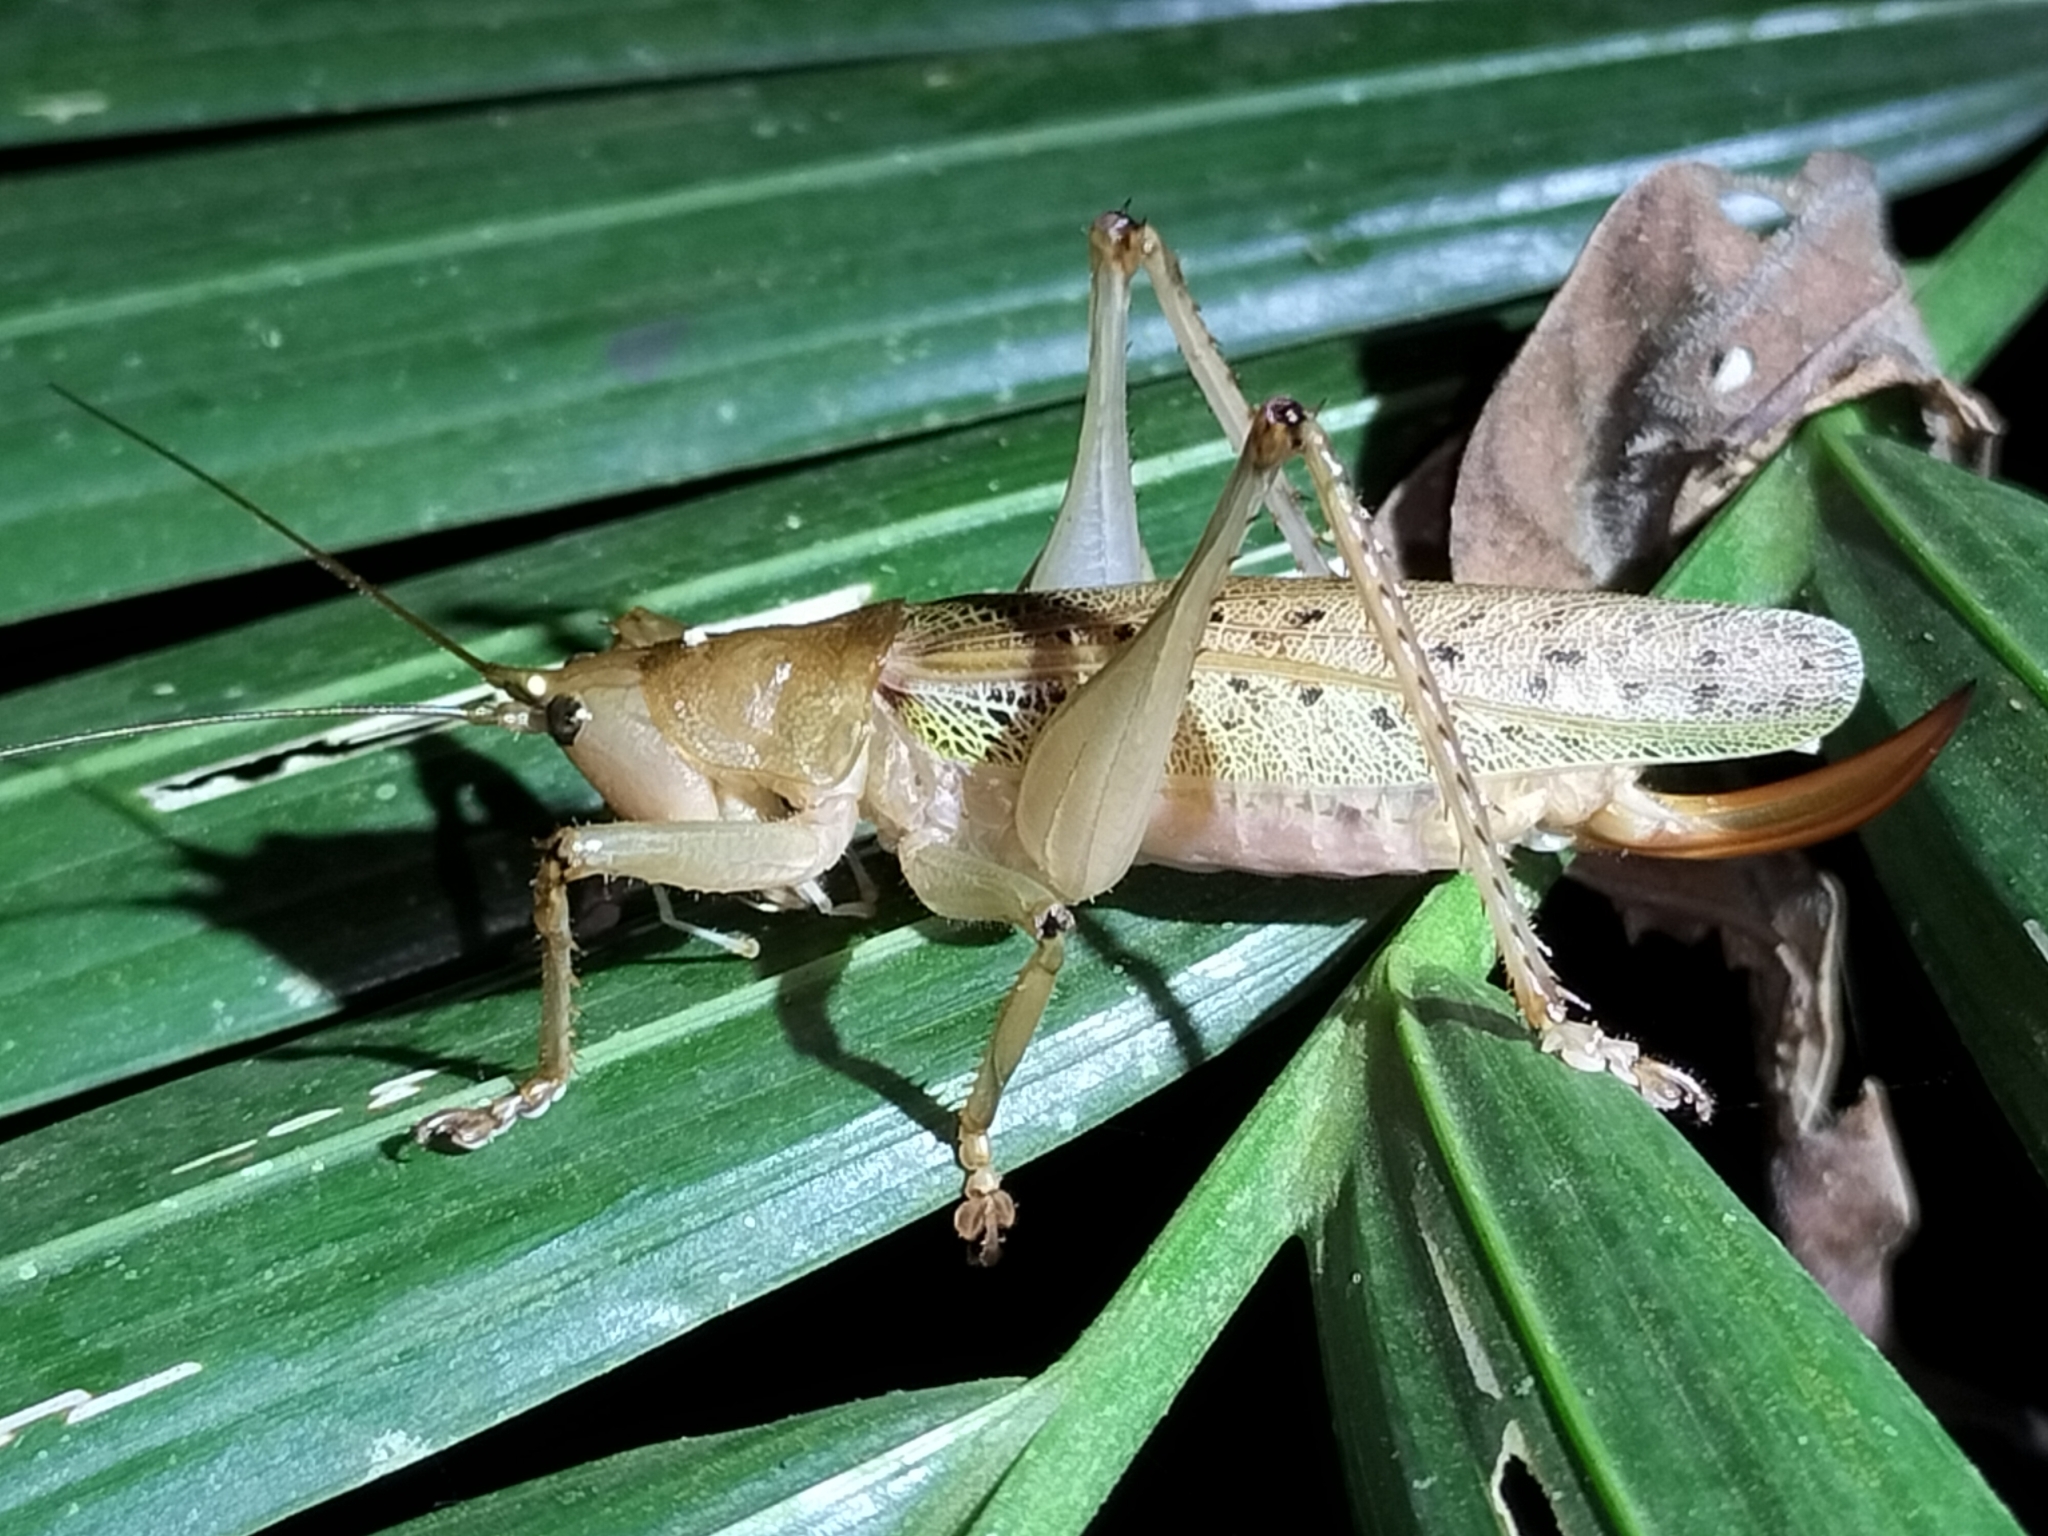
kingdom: Animalia
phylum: Arthropoda
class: Insecta
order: Orthoptera
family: Tettigoniidae
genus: Barbaragraecia
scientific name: Barbaragraecia richardsoni
